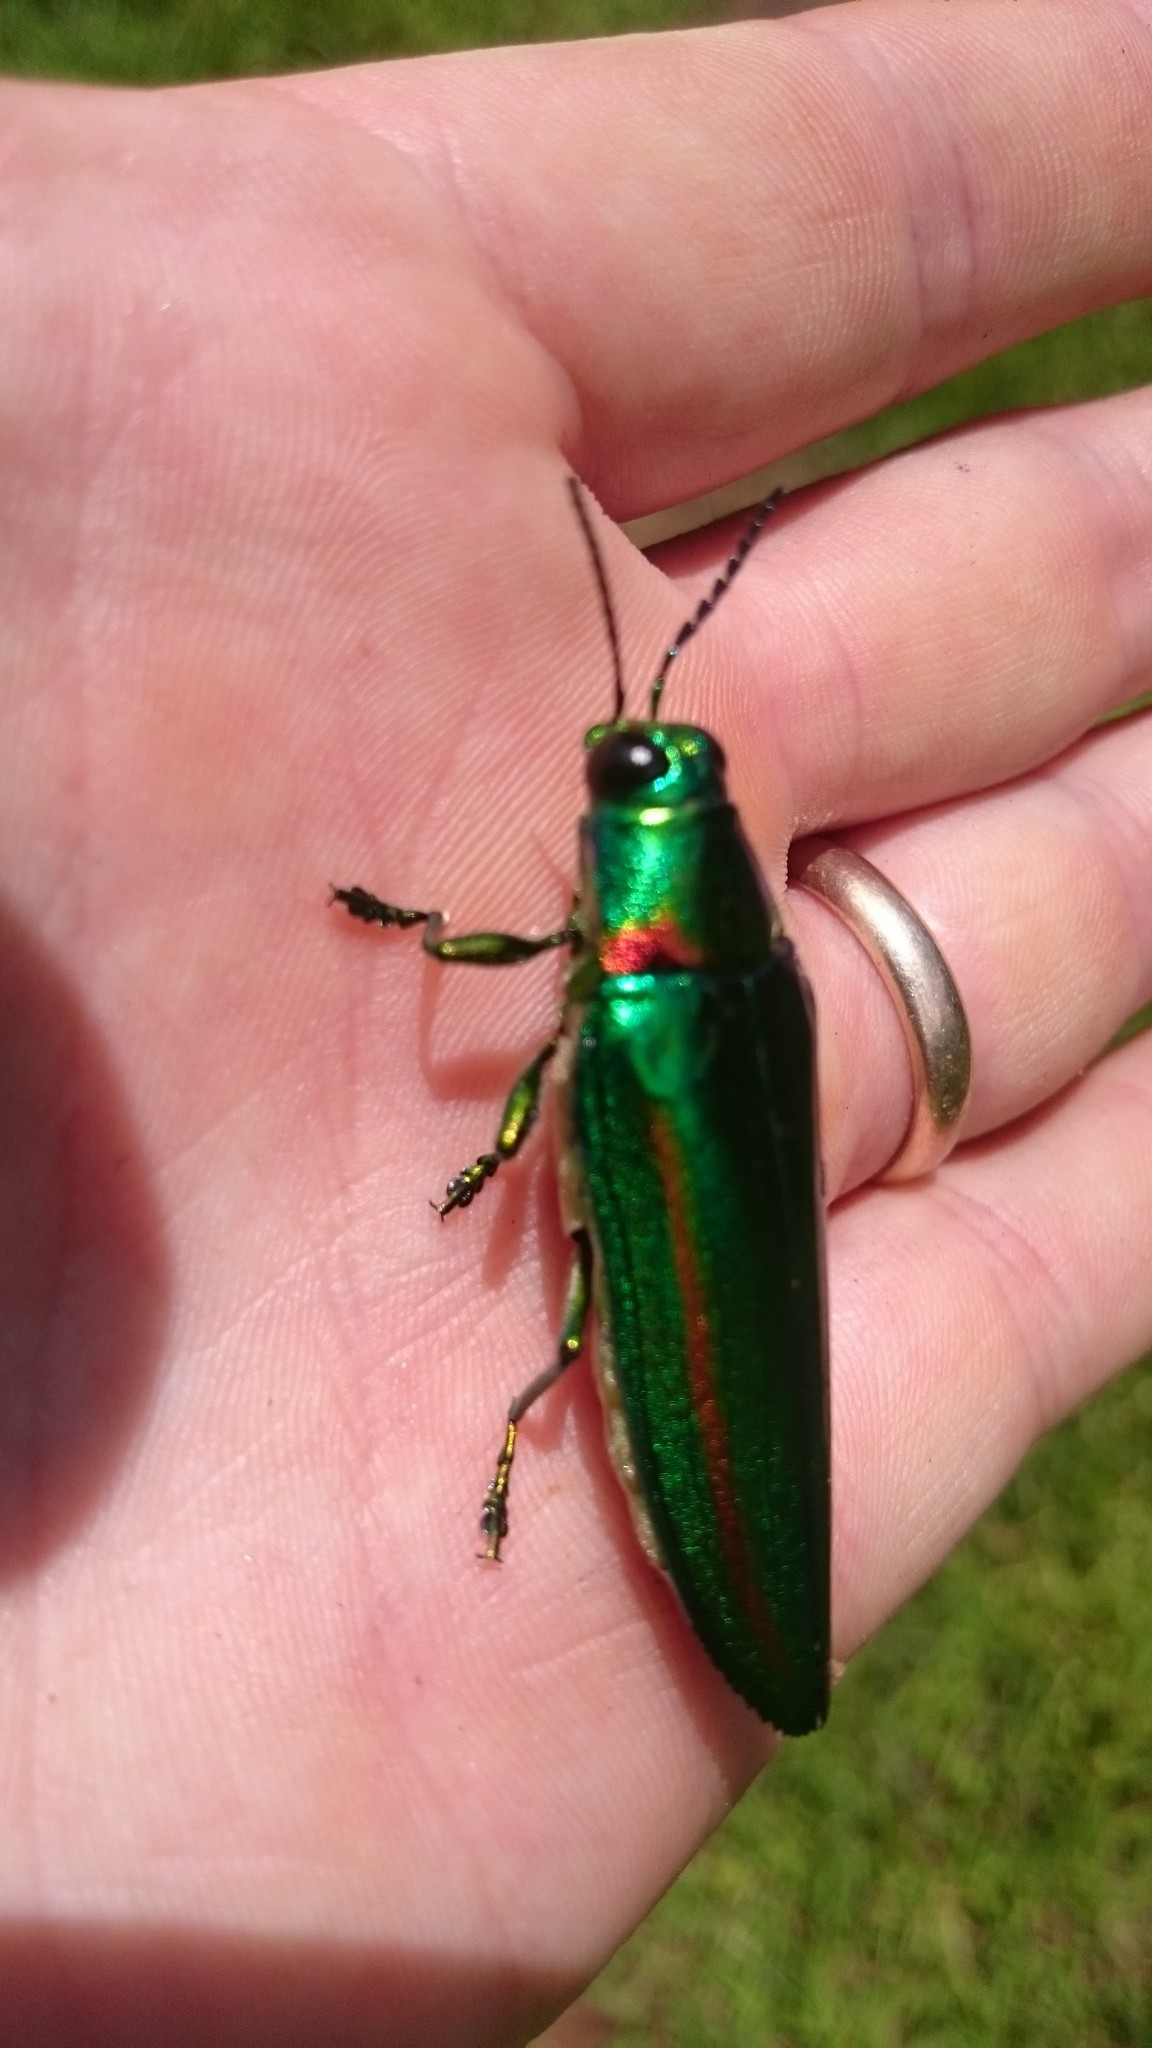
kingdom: Animalia
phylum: Arthropoda
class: Insecta
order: Coleoptera
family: Buprestidae
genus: Chrysochroa
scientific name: Chrysochroa rajah
